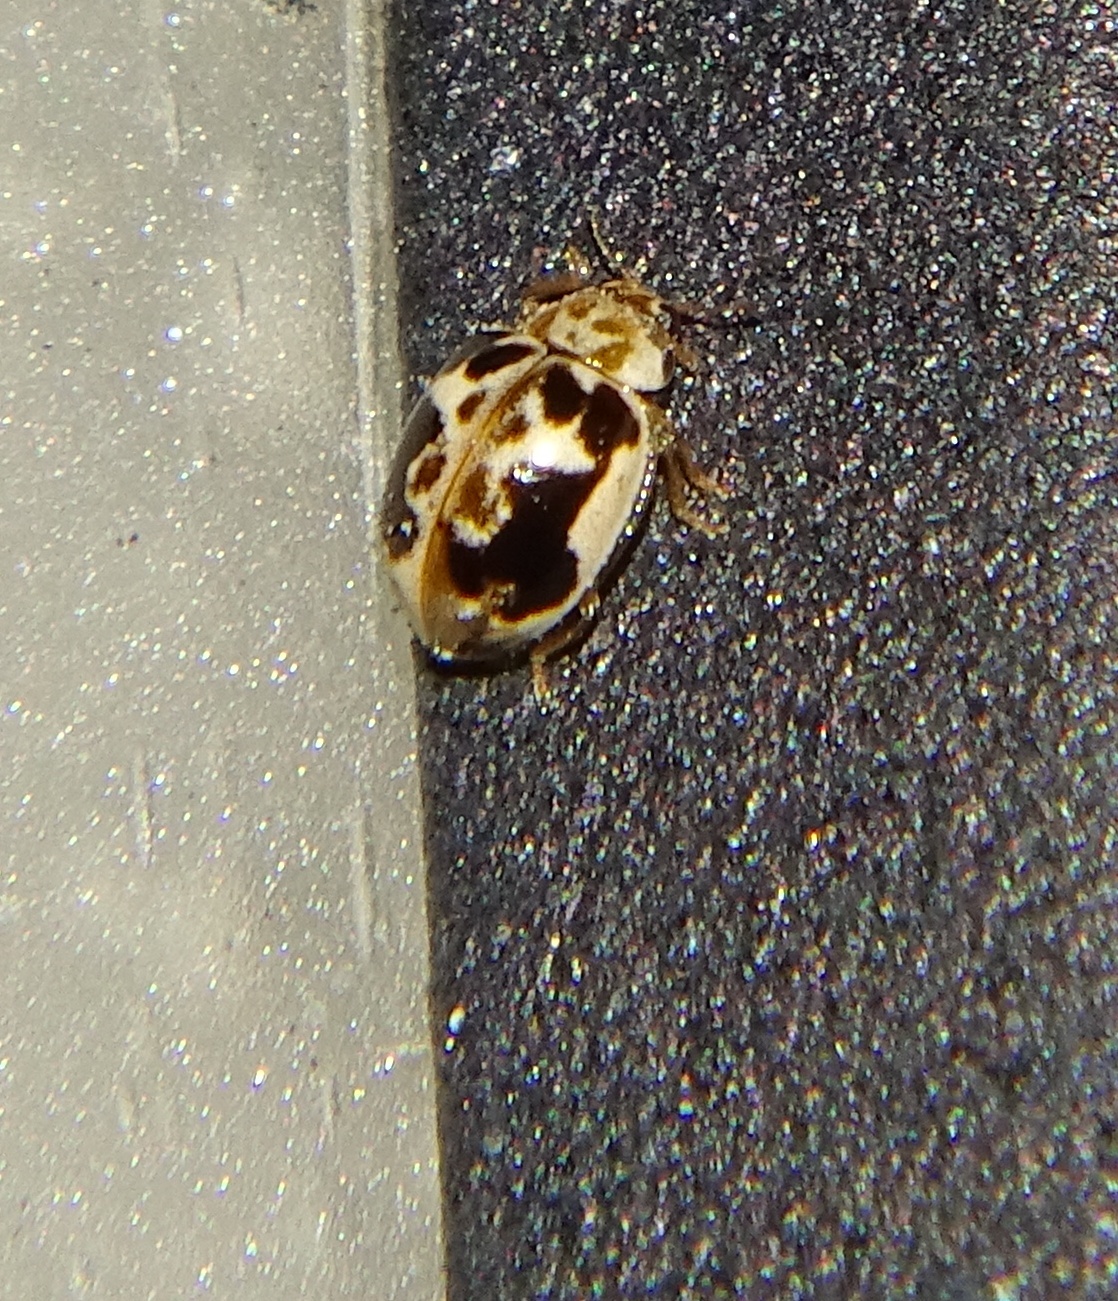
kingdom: Animalia
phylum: Arthropoda
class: Insecta
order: Coleoptera
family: Coccinellidae
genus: Psyllobora
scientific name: Psyllobora renifer
